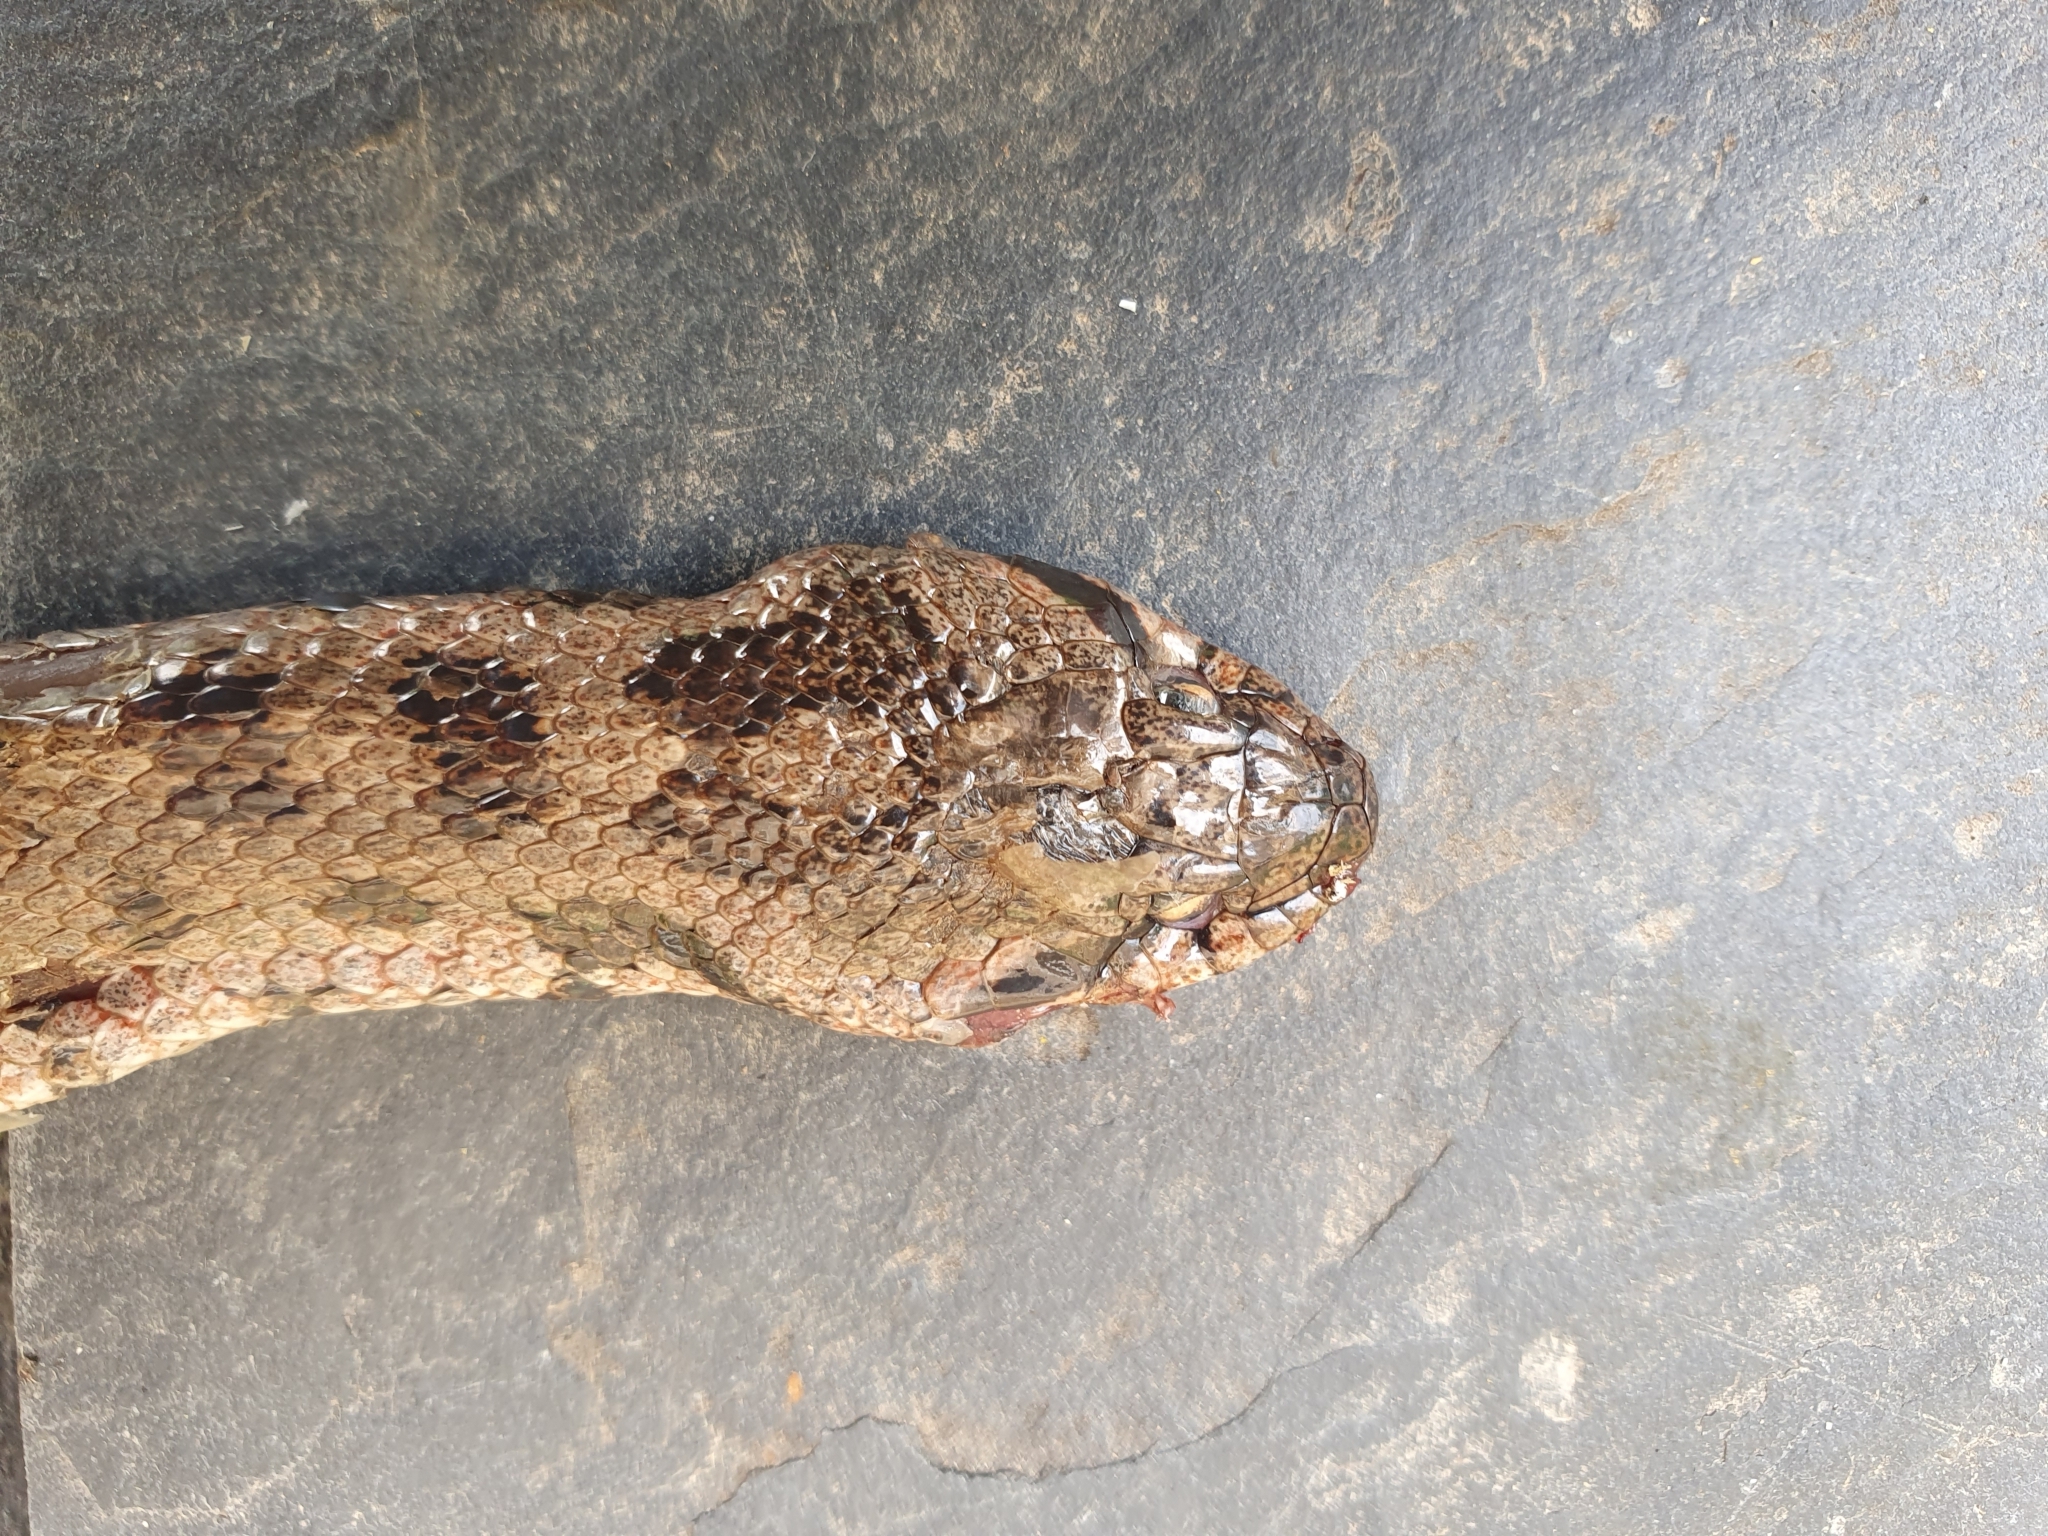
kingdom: Animalia
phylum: Chordata
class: Squamata
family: Colubridae
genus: Coronella
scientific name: Coronella girondica
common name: Southern smooth snake
